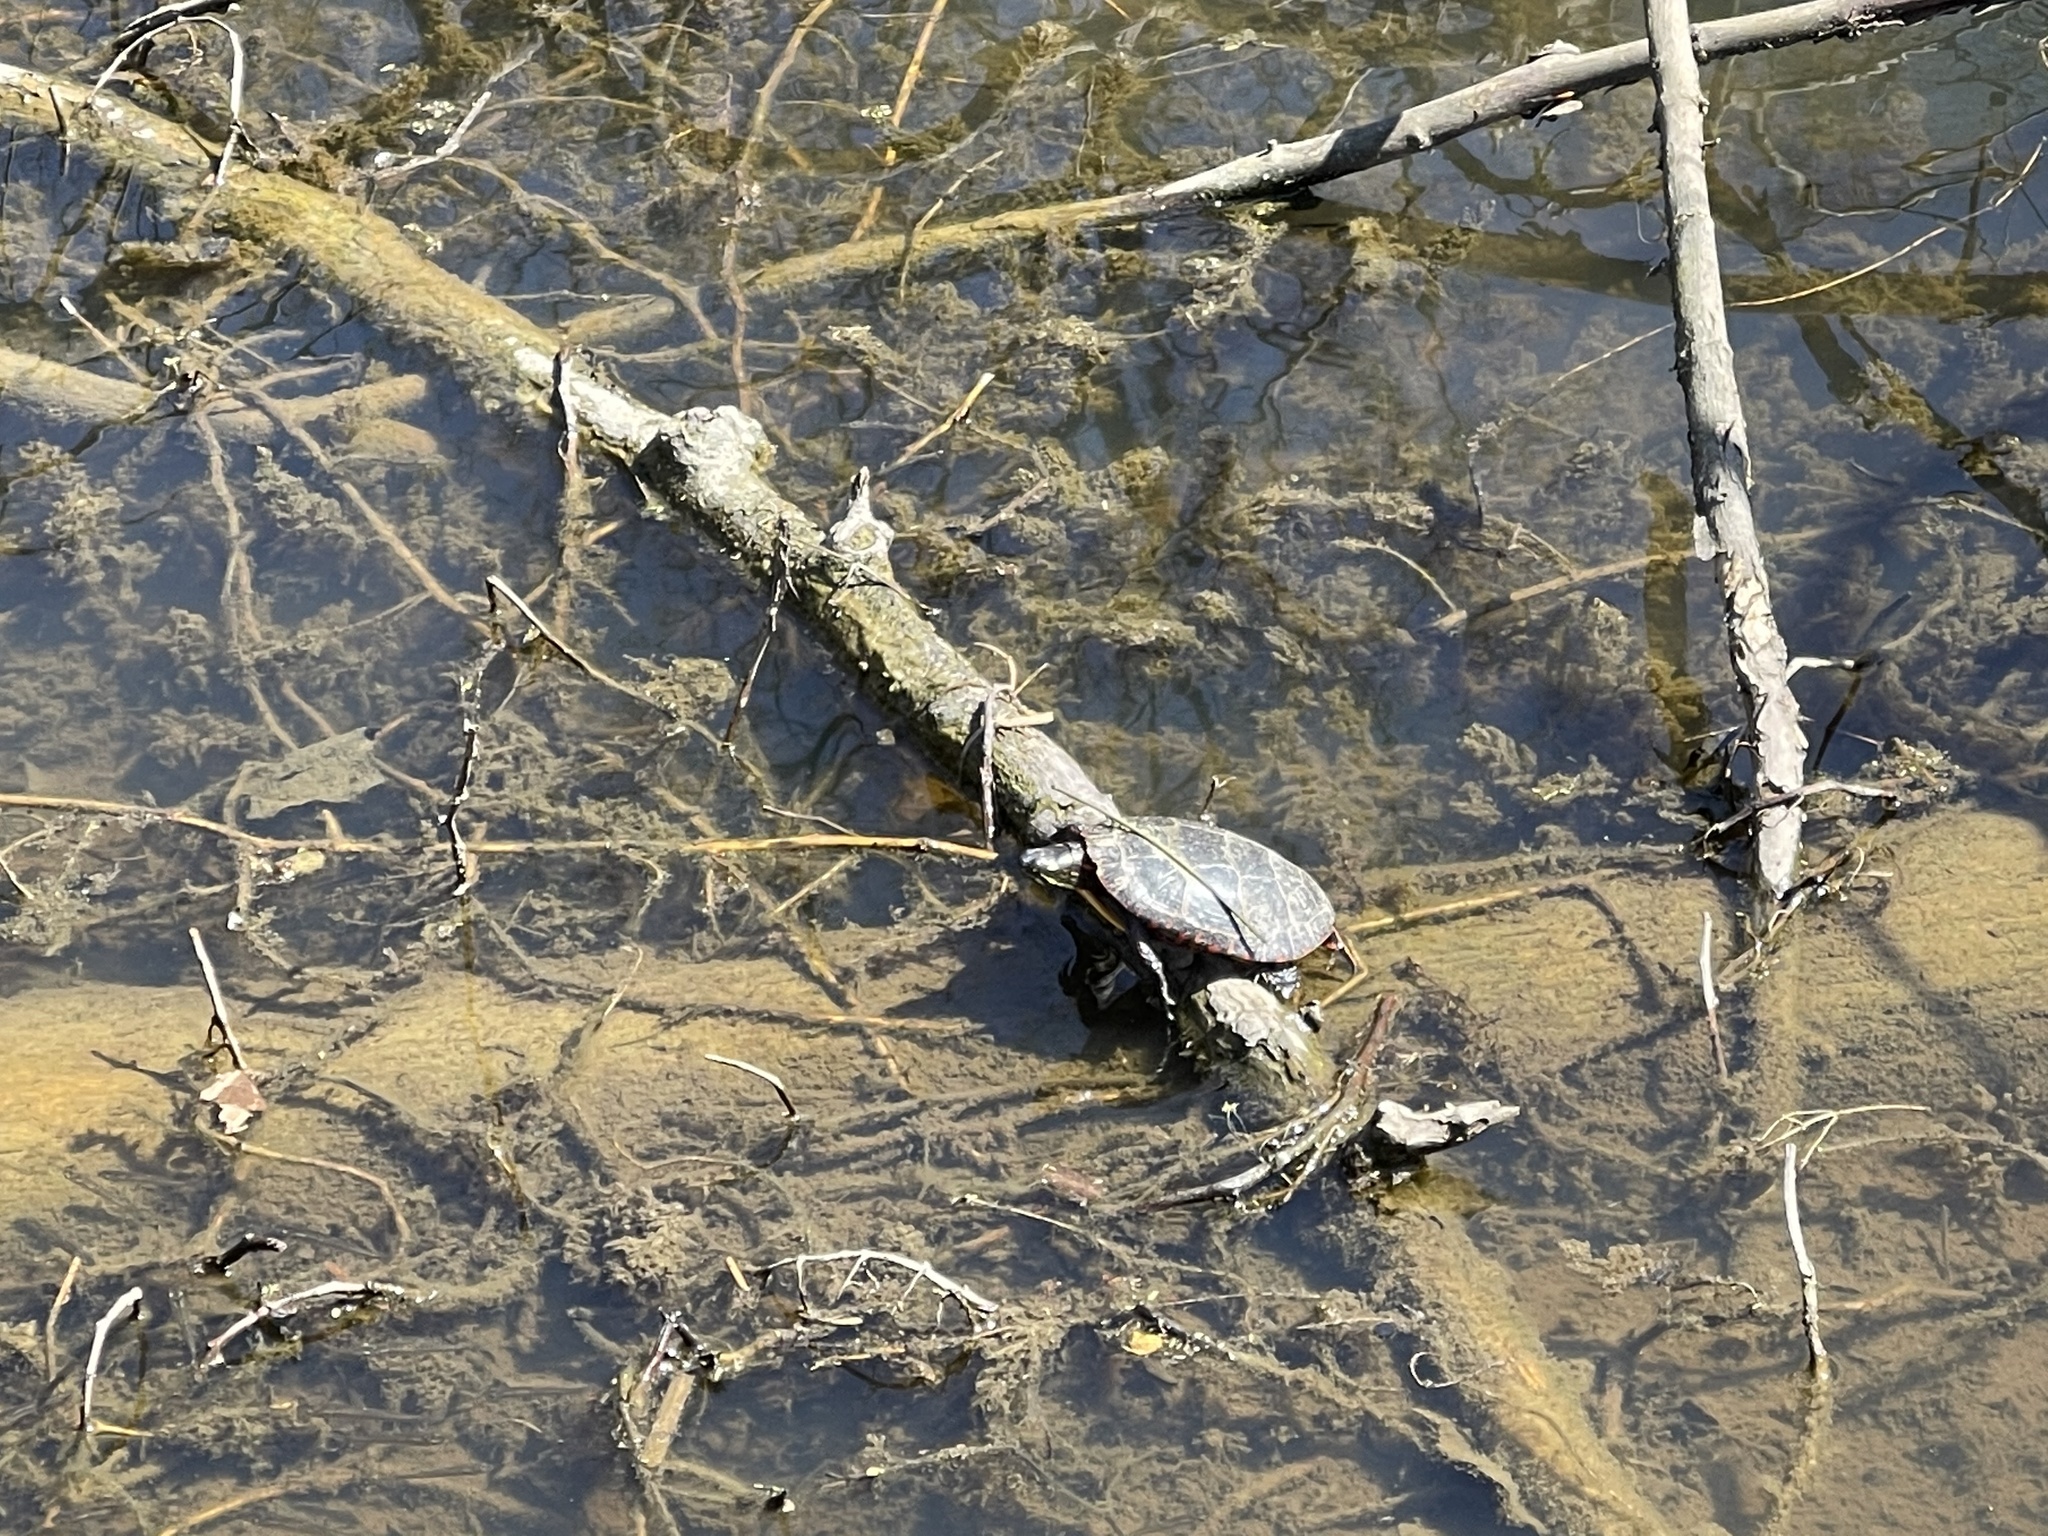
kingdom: Animalia
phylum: Chordata
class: Testudines
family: Emydidae
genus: Chrysemys
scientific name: Chrysemys picta
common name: Painted turtle
